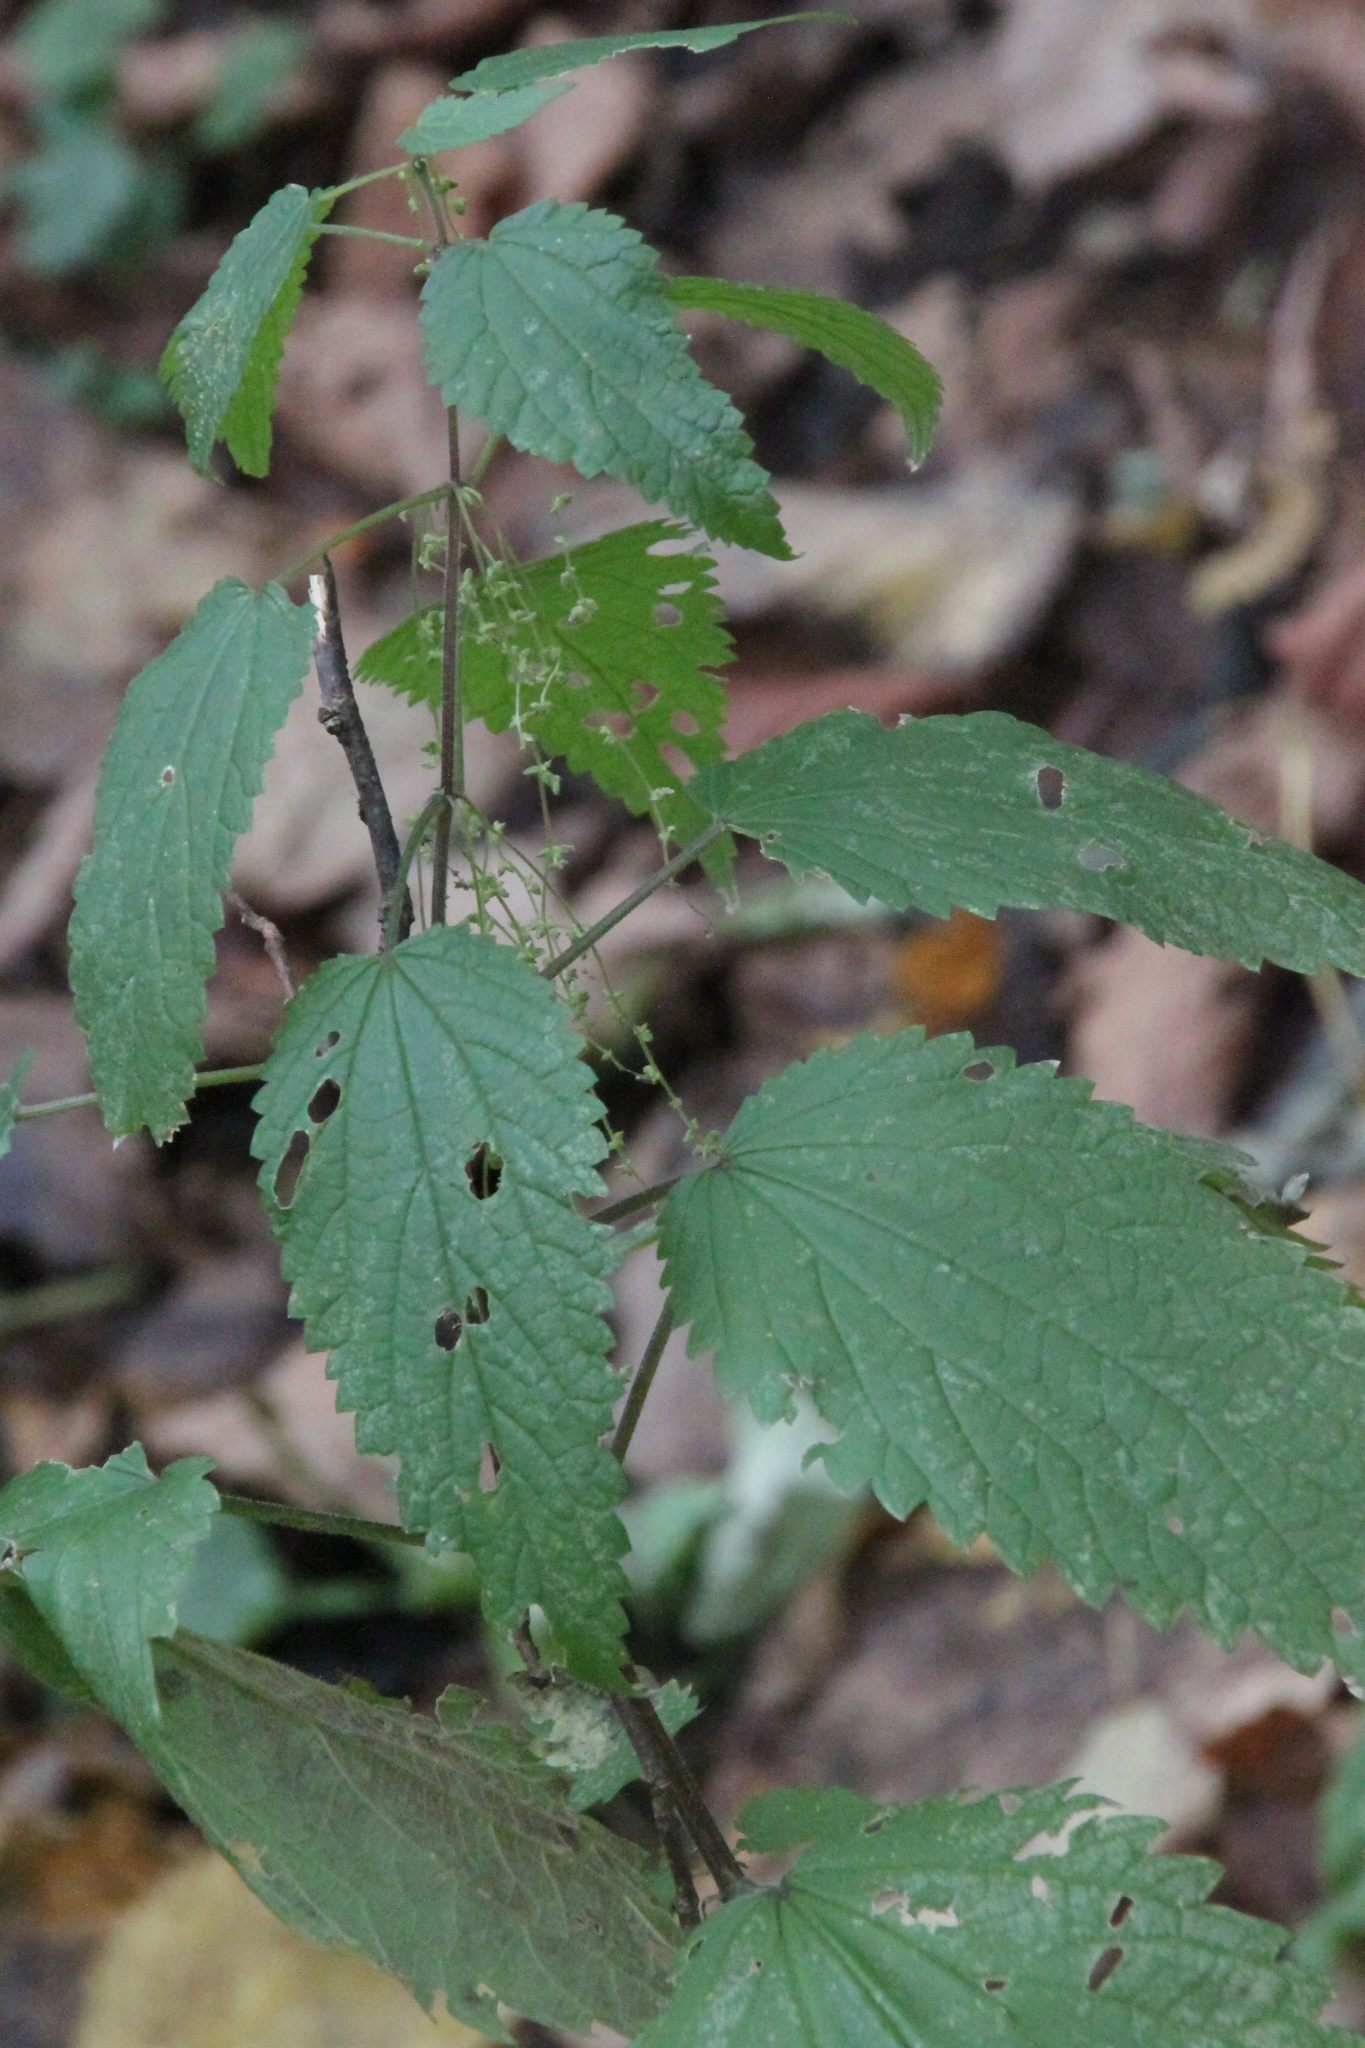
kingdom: Plantae
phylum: Tracheophyta
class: Magnoliopsida
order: Rosales
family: Urticaceae
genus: Urtica
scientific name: Urtica dioica
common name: Common nettle
